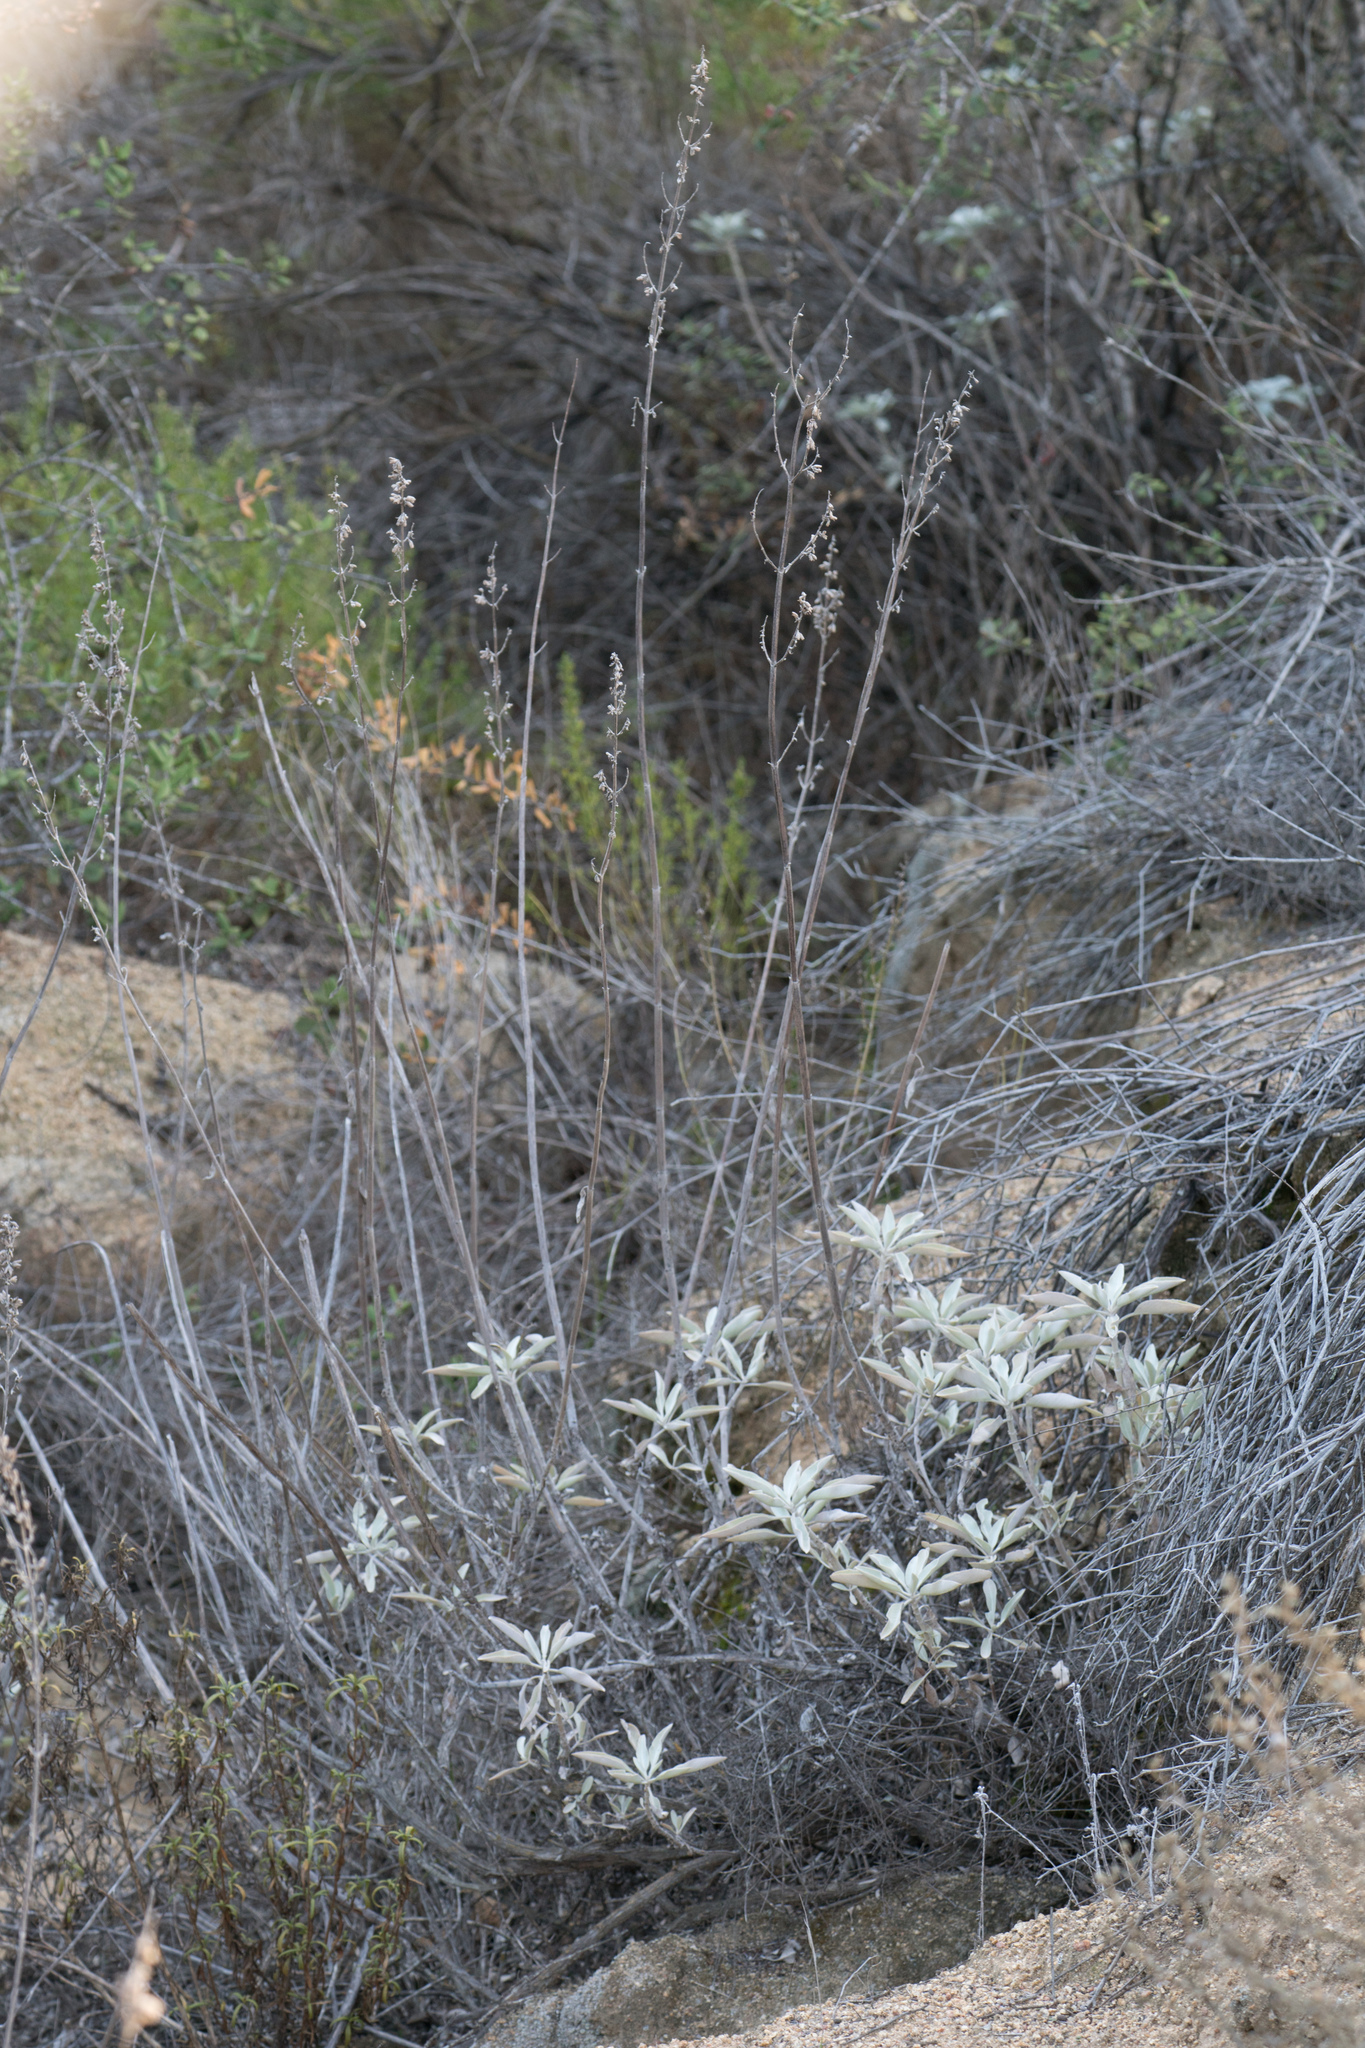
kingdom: Plantae
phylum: Tracheophyta
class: Magnoliopsida
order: Lamiales
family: Lamiaceae
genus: Salvia
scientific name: Salvia apiana
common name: White sage
